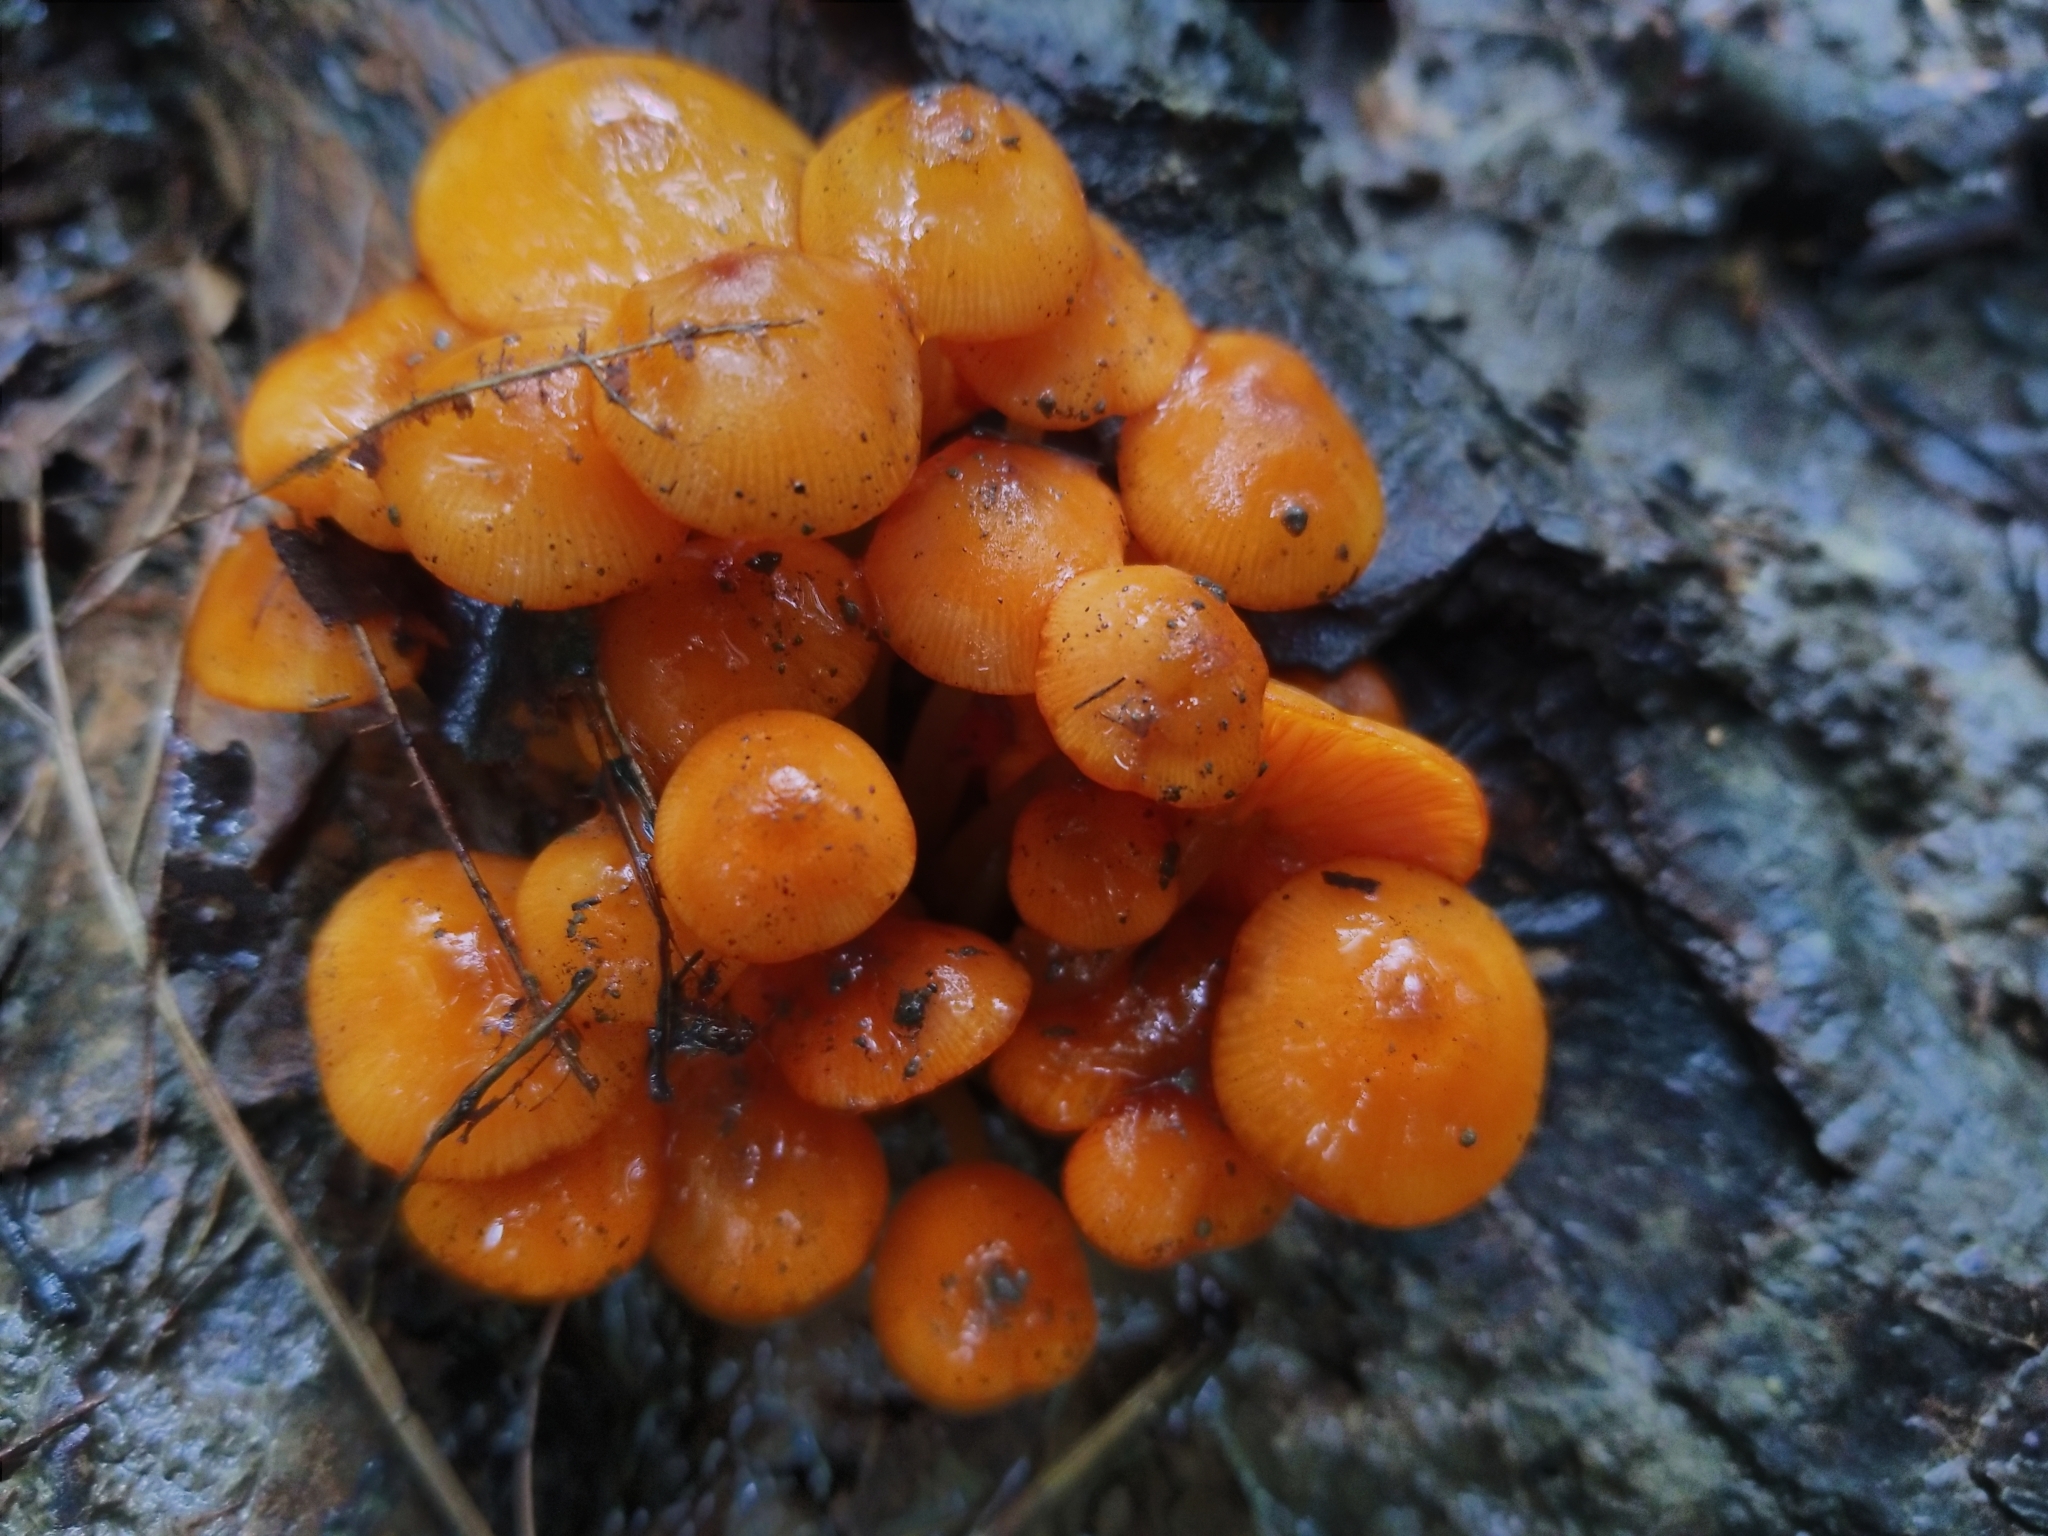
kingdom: Fungi
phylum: Basidiomycota
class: Agaricomycetes
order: Agaricales
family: Mycenaceae
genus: Mycena
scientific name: Mycena leaiana
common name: Orange mycena
